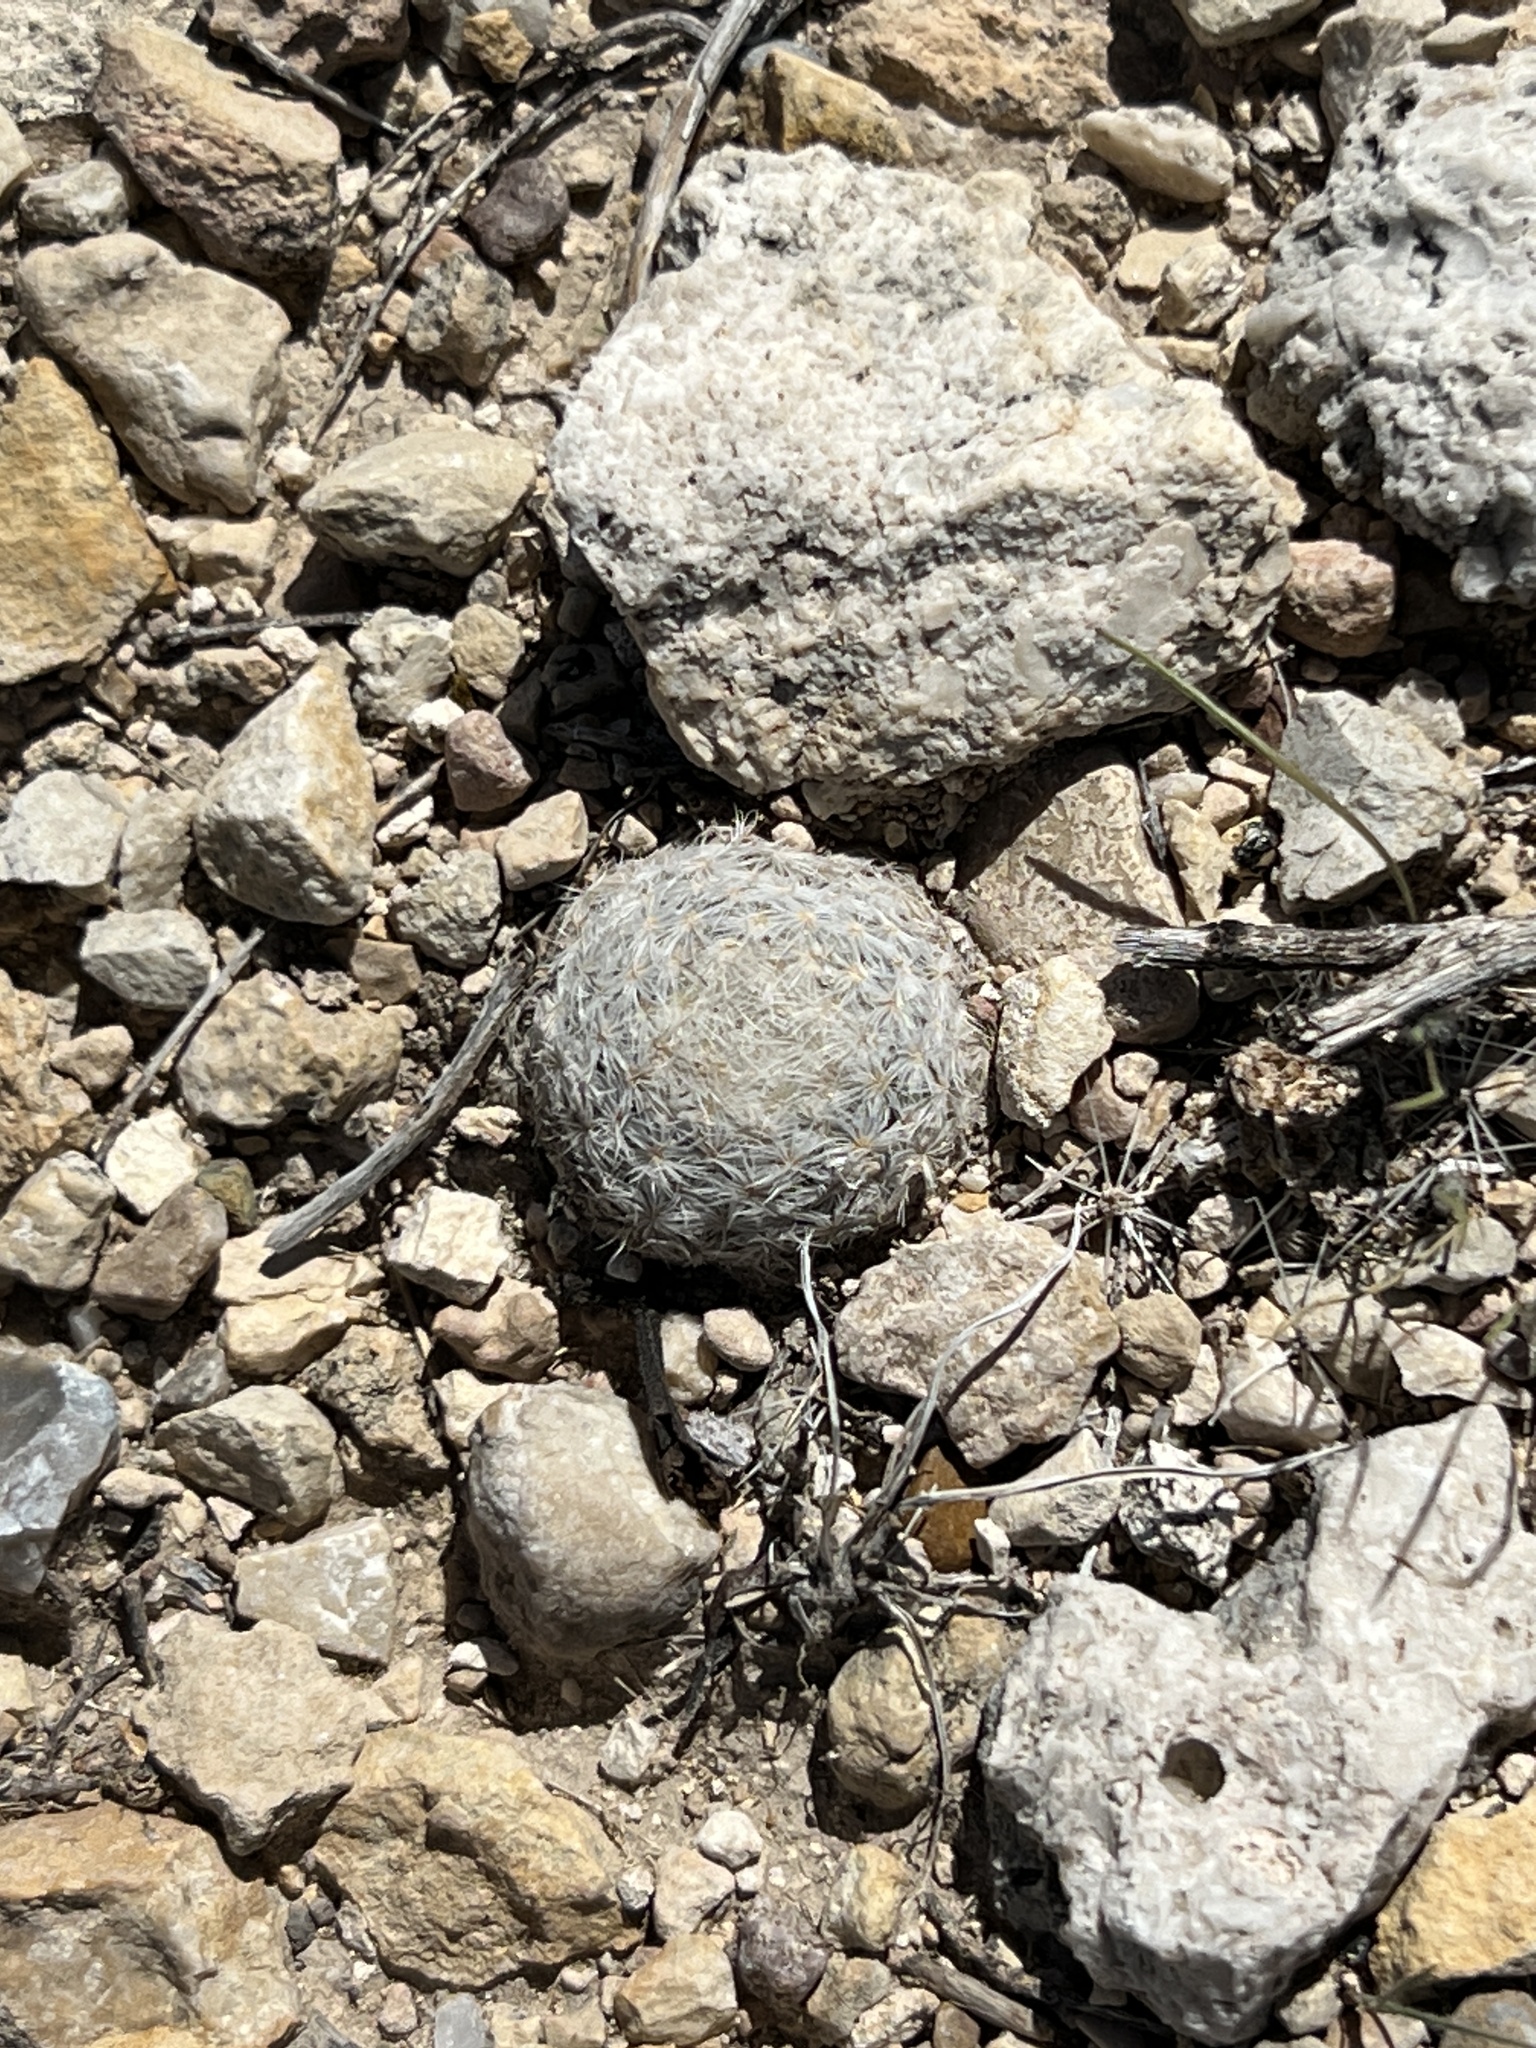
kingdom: Plantae
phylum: Tracheophyta
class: Magnoliopsida
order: Caryophyllales
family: Cactaceae
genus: Mammillaria
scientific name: Mammillaria lasiacantha
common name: Lace-spine nipple cactus
